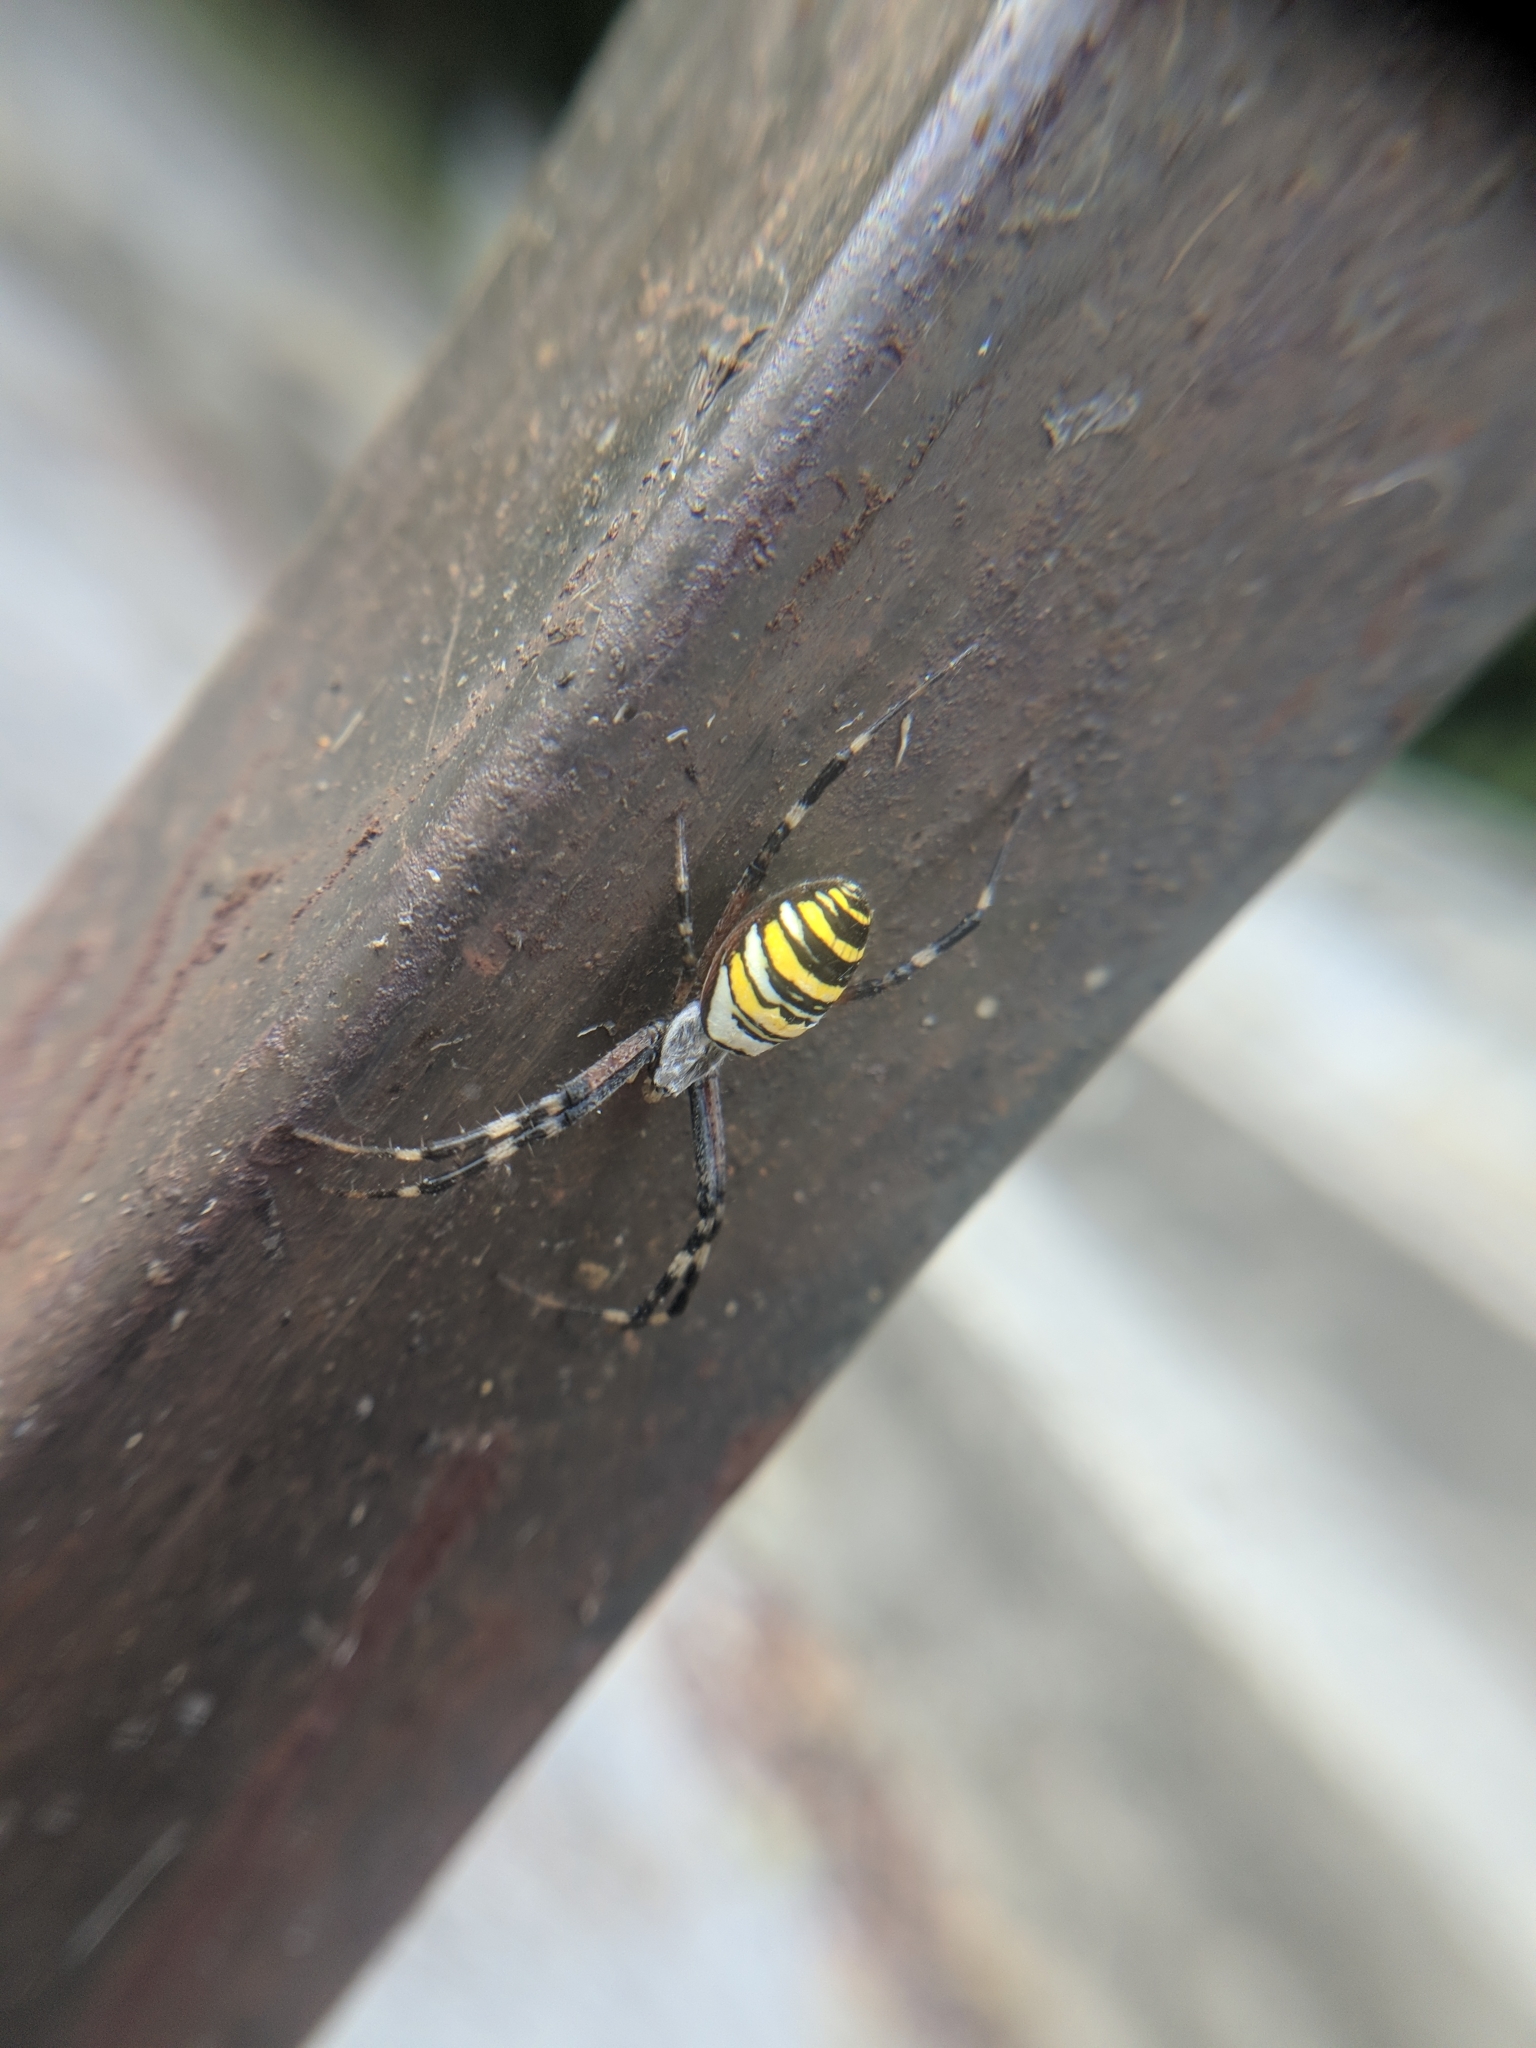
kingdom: Animalia
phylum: Arthropoda
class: Arachnida
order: Araneae
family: Araneidae
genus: Argiope
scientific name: Argiope bruennichi
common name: Wasp spider
